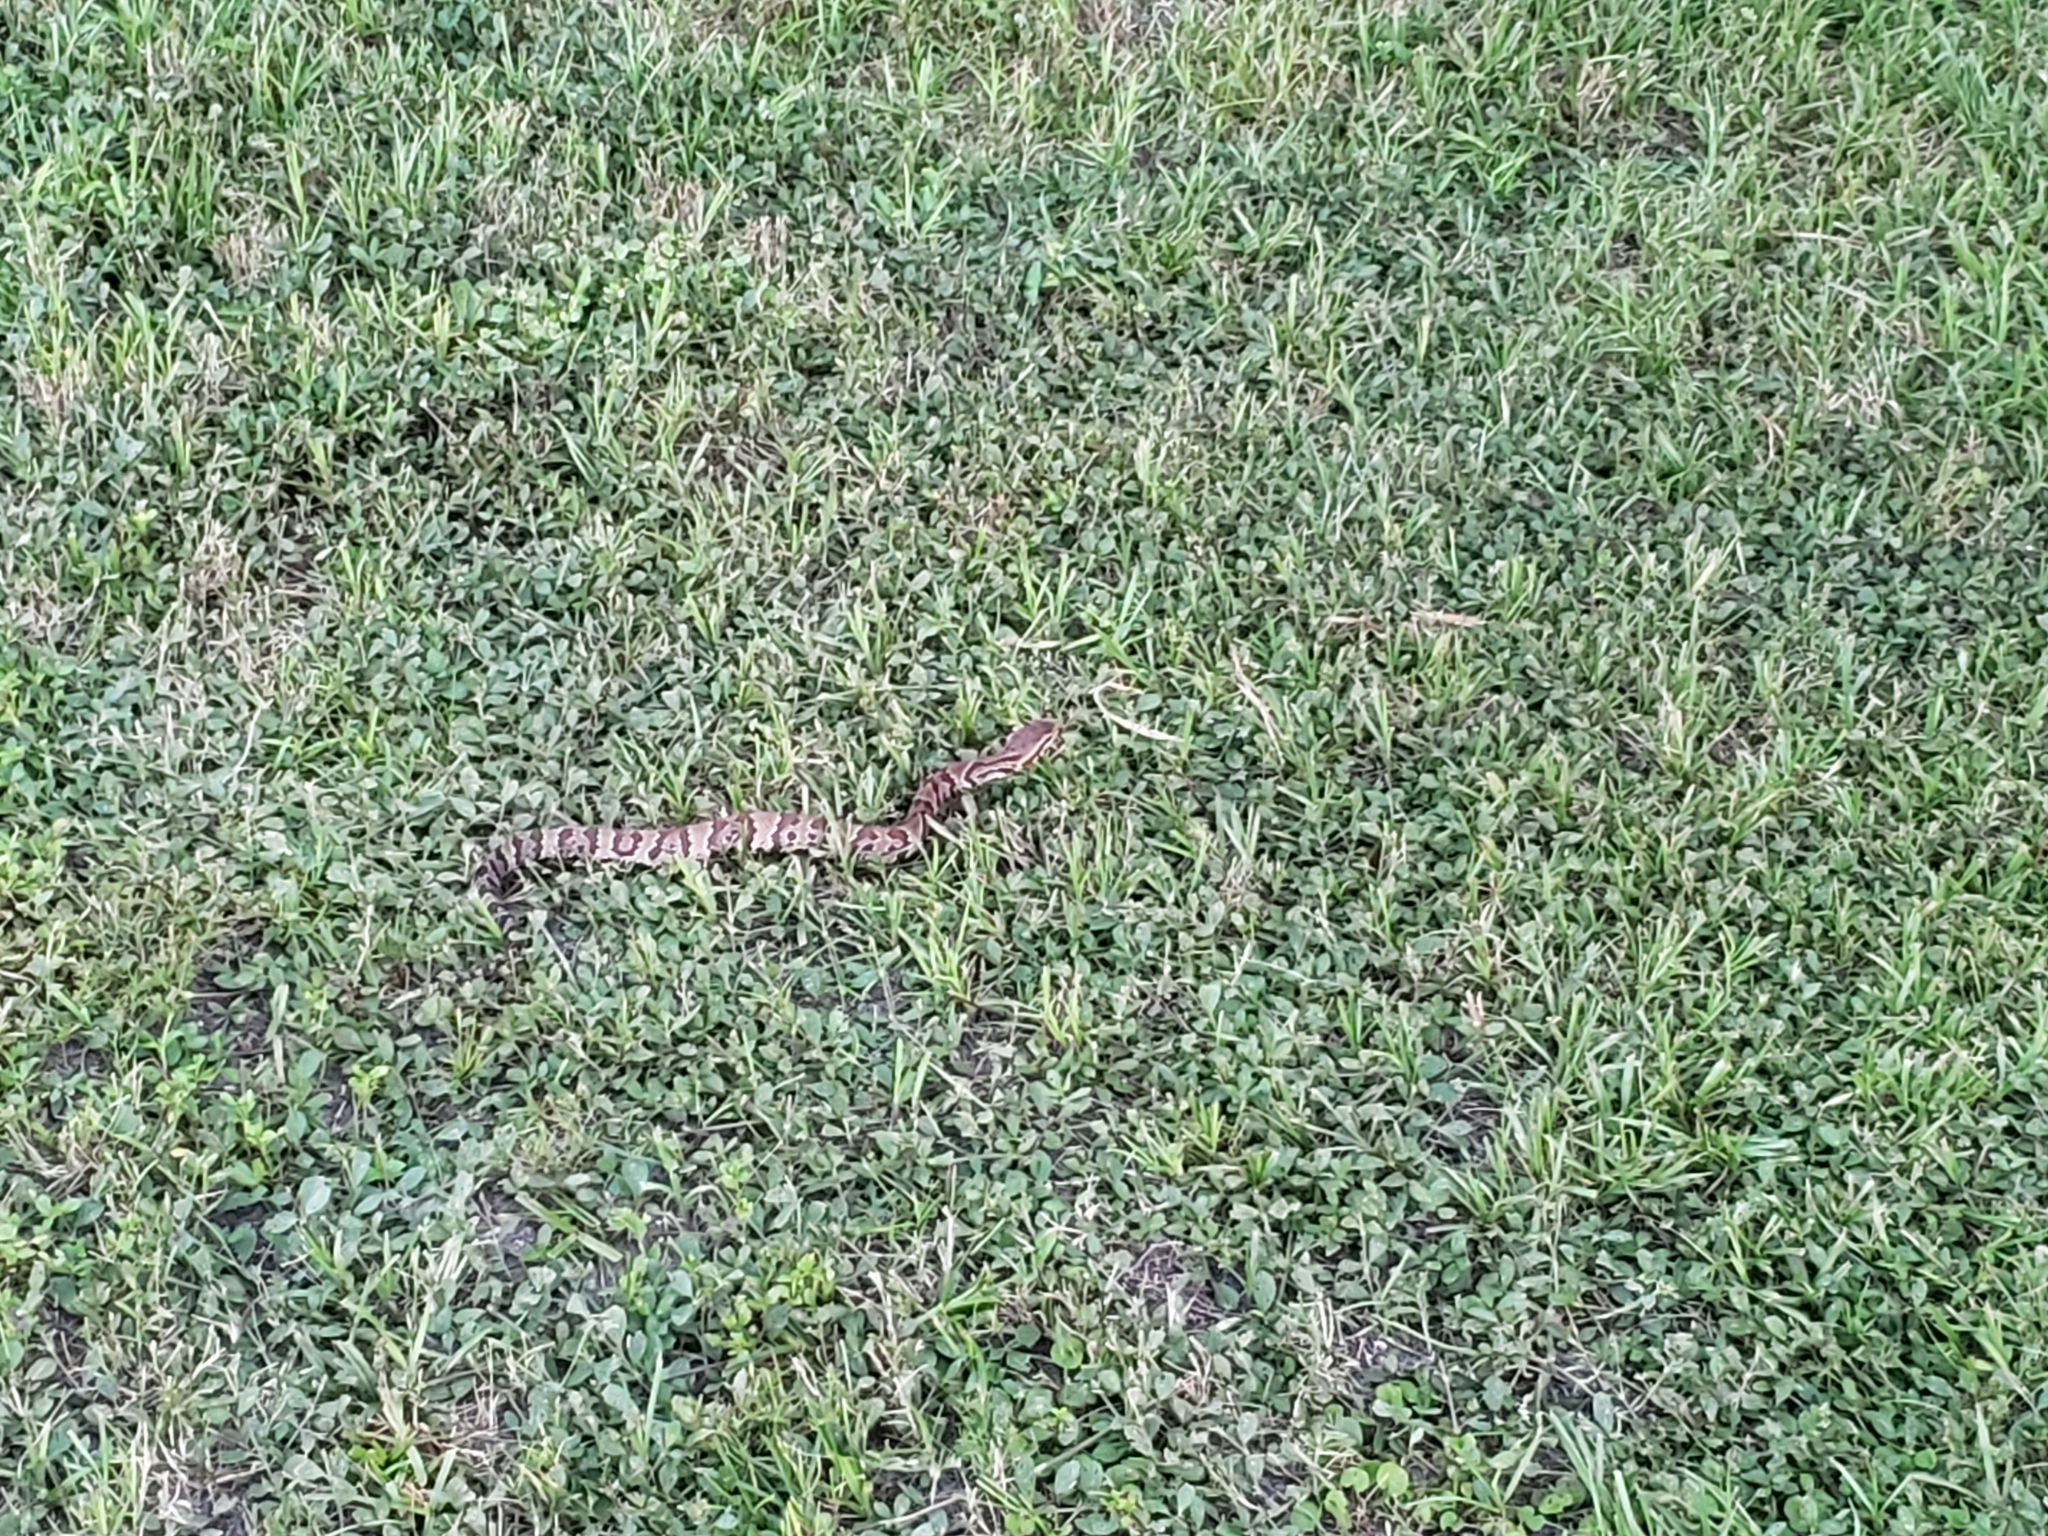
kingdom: Animalia
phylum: Chordata
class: Squamata
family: Viperidae
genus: Agkistrodon
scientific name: Agkistrodon conanti
